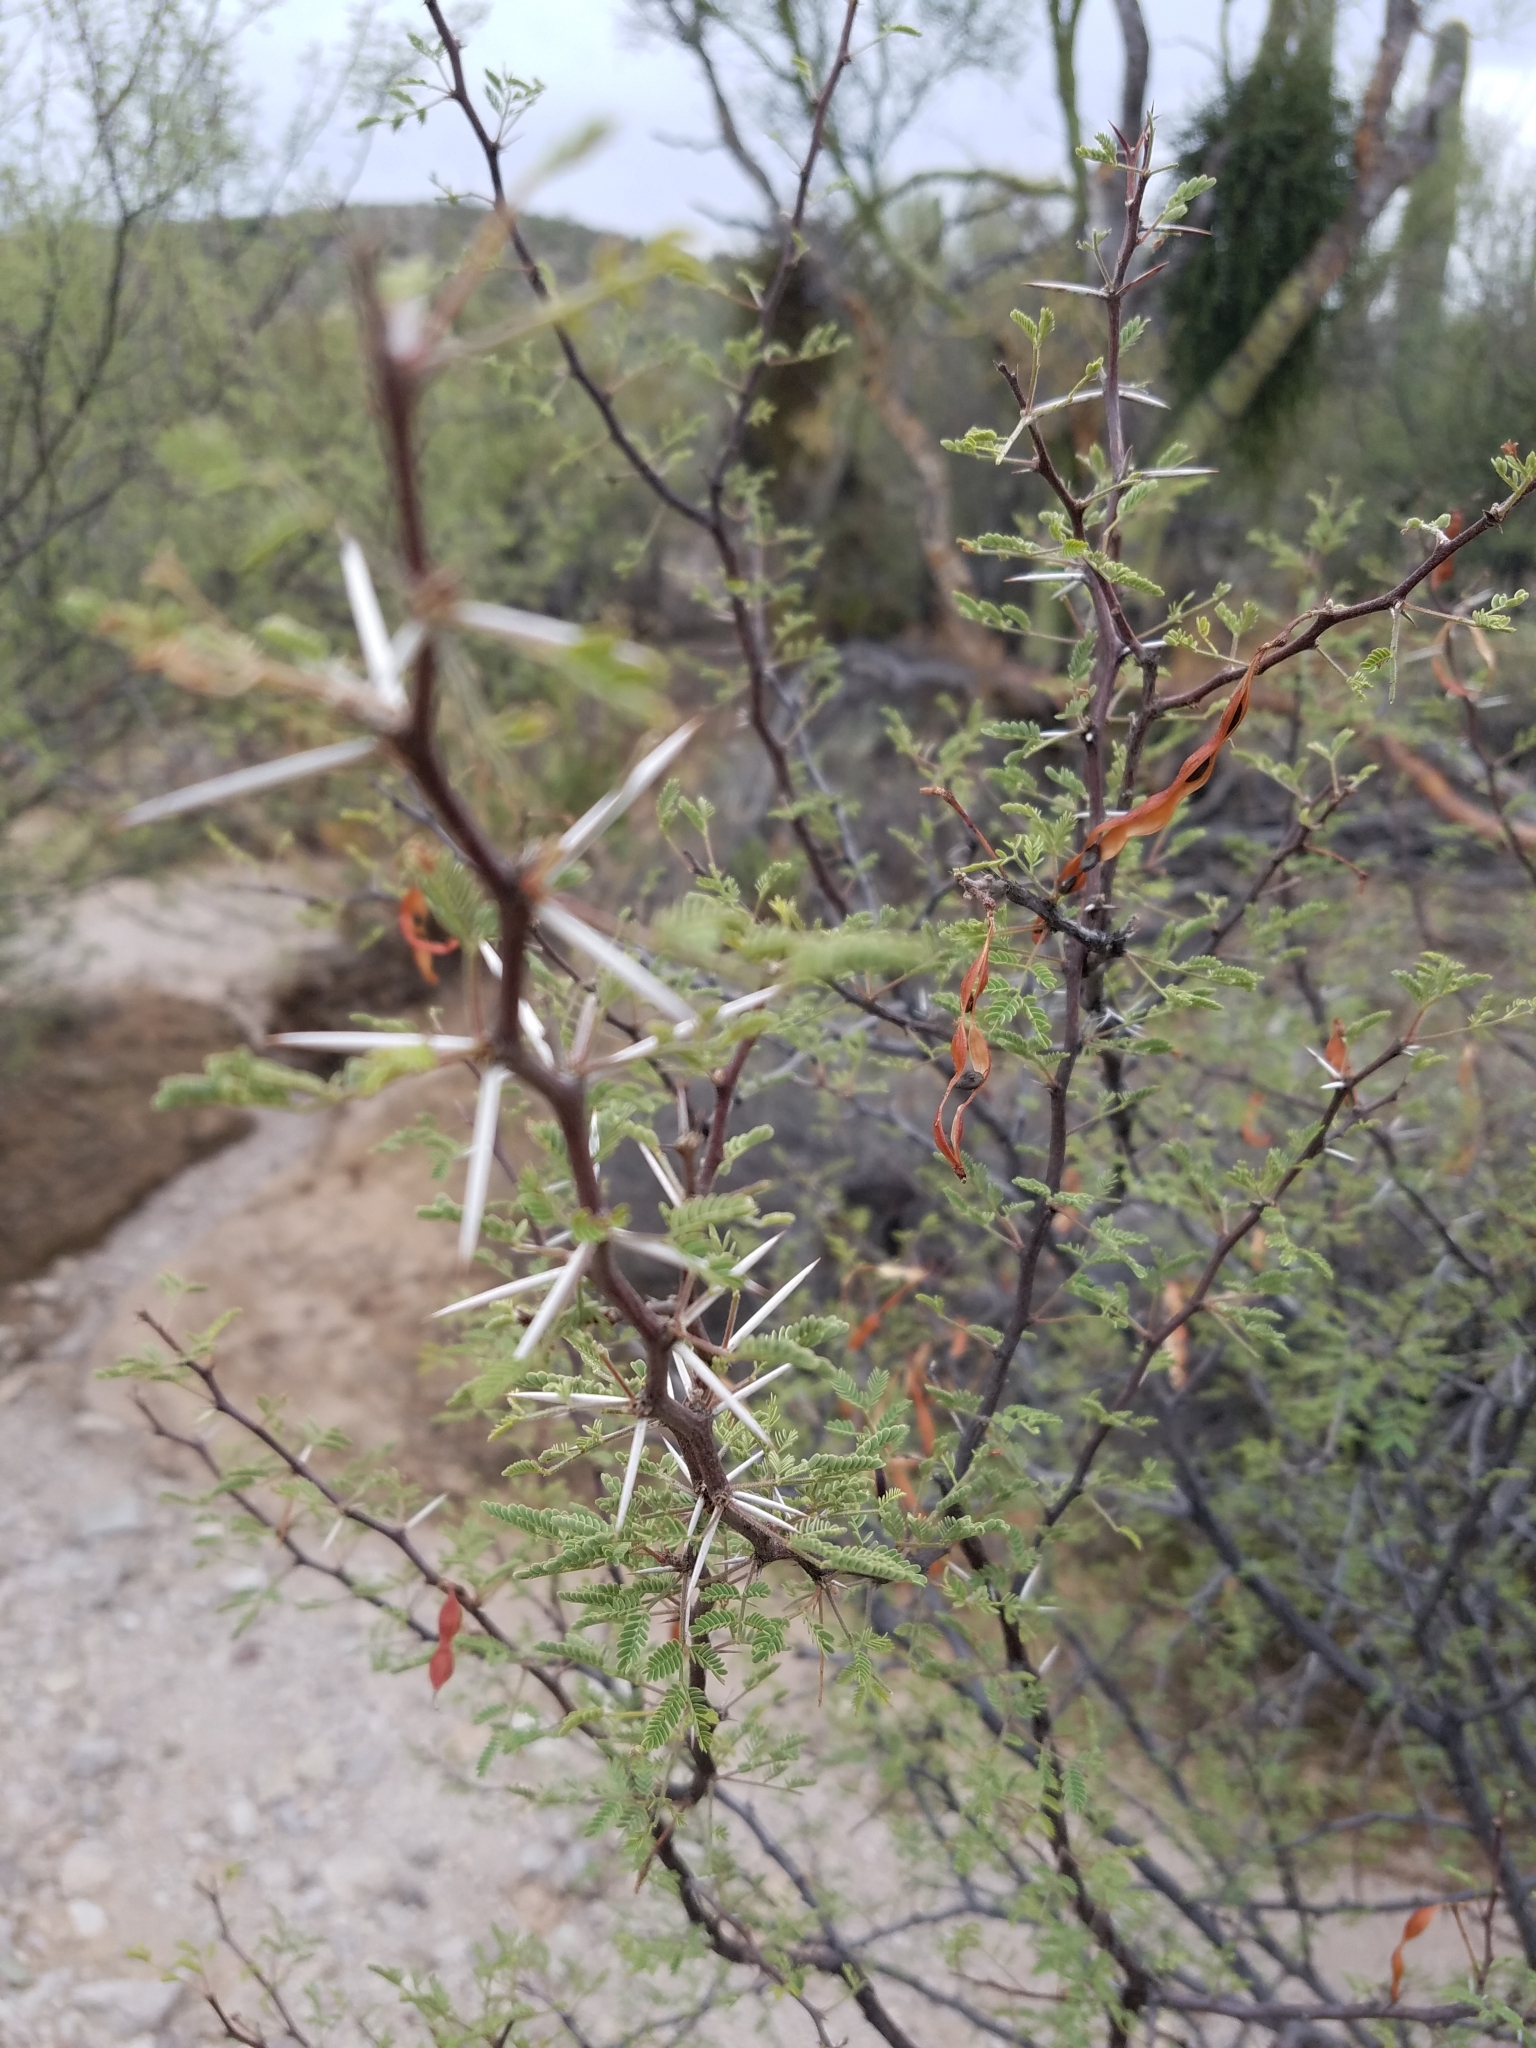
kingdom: Plantae
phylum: Tracheophyta
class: Magnoliopsida
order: Fabales
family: Fabaceae
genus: Vachellia
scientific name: Vachellia constricta
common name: Mescat acacia
